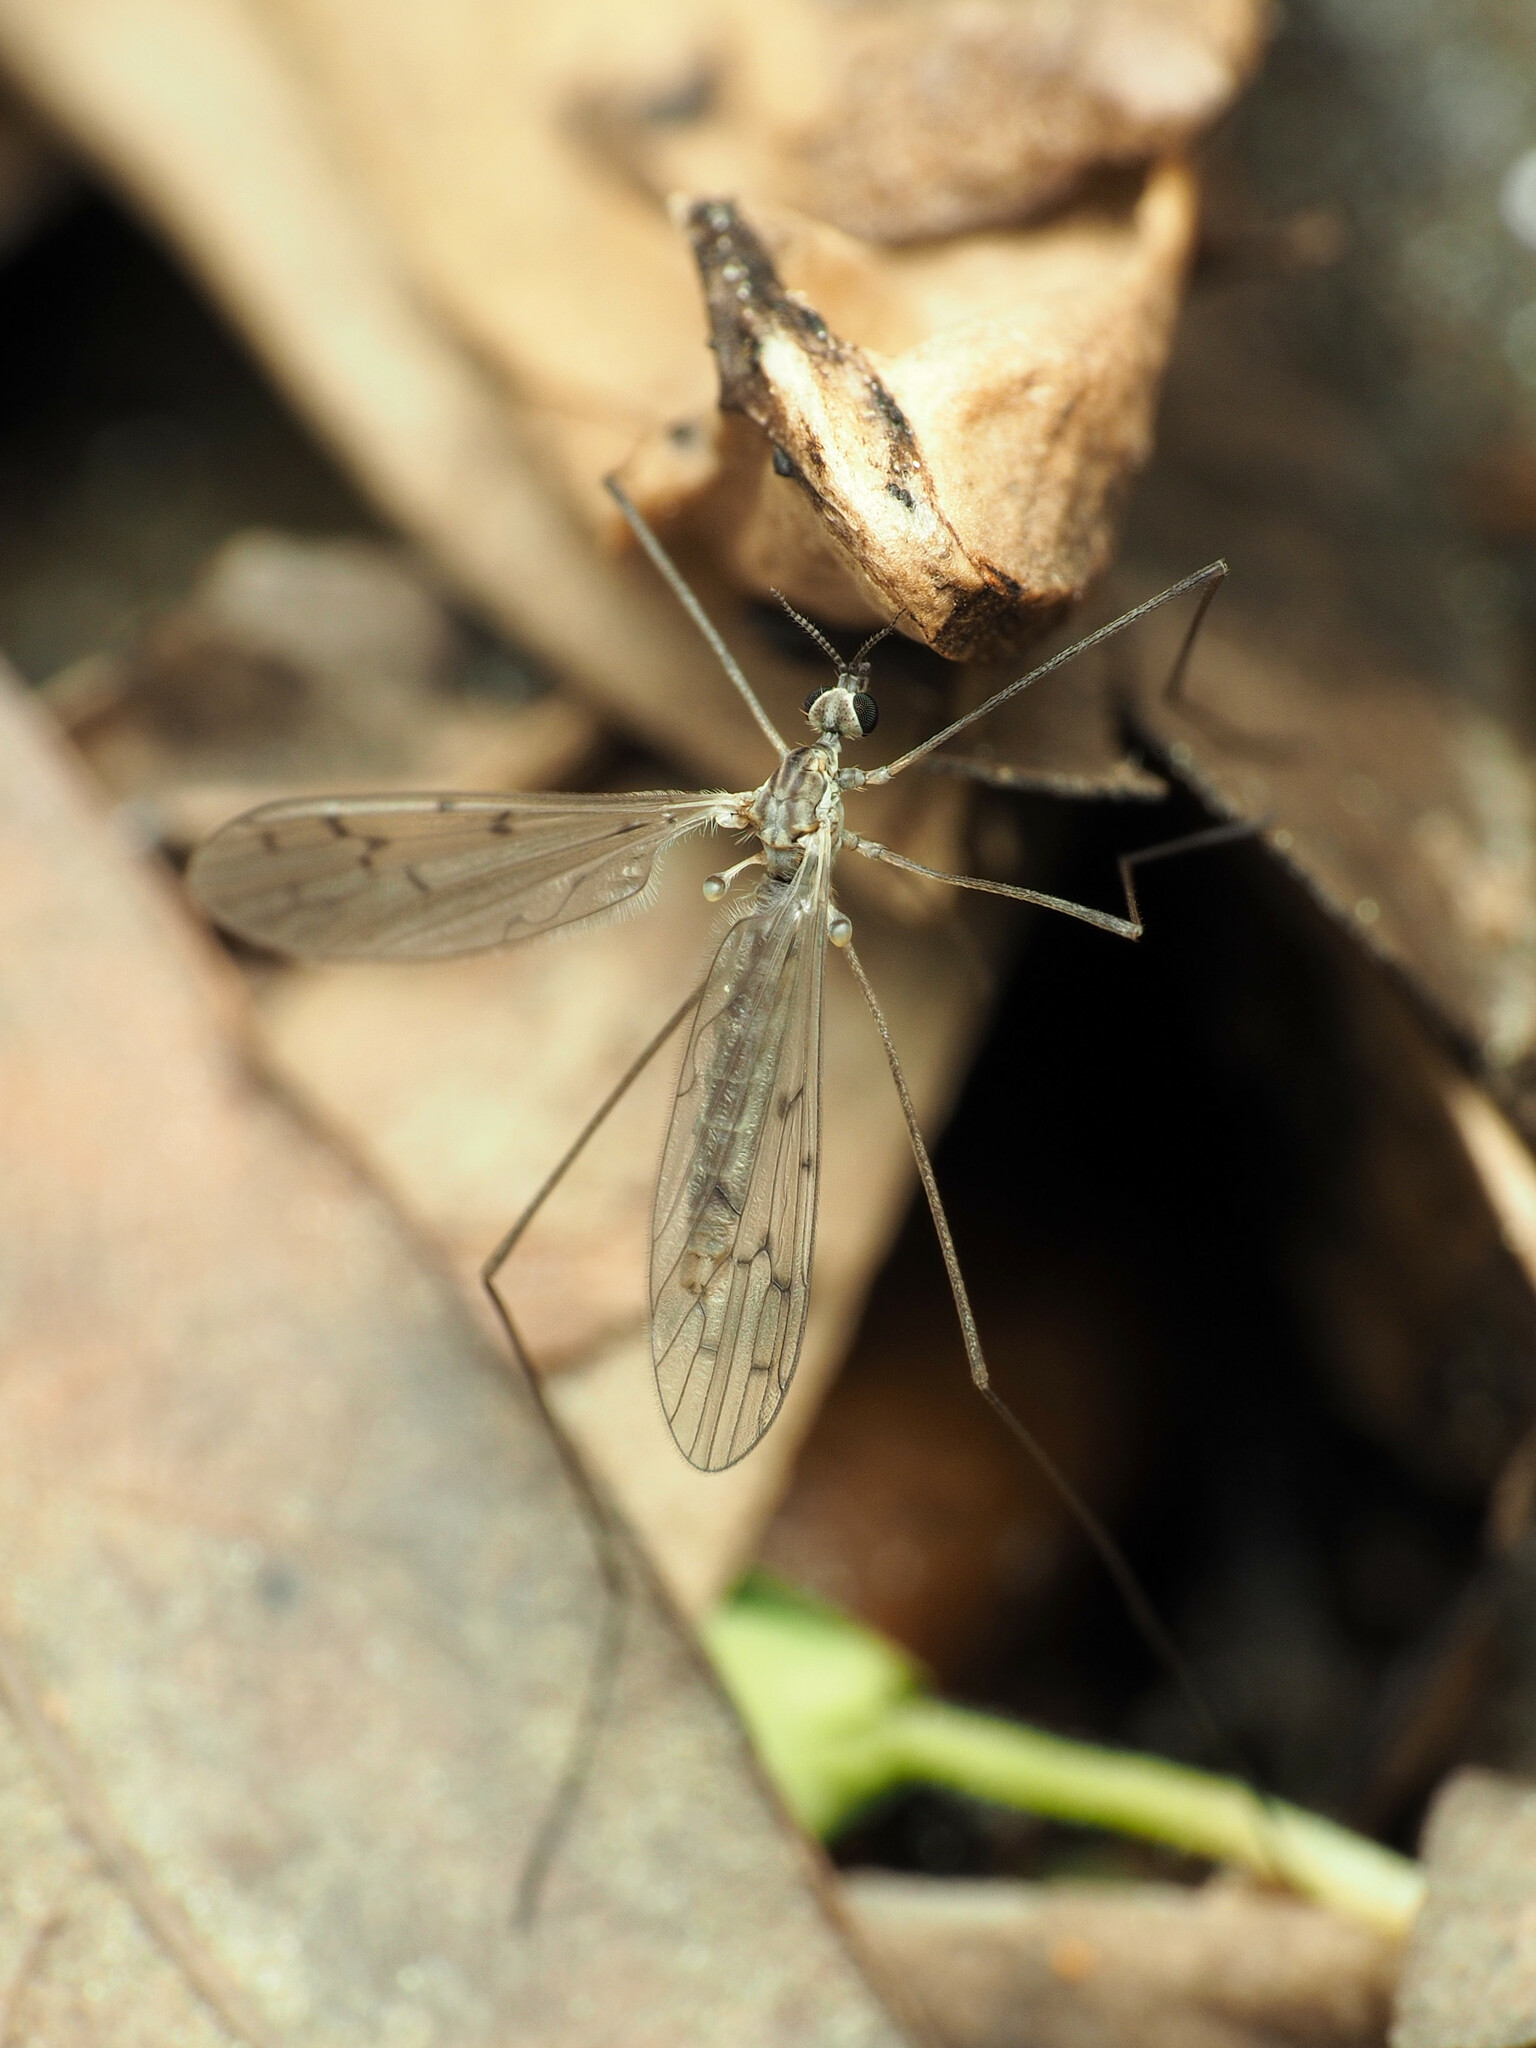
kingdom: Animalia
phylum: Arthropoda
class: Insecta
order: Diptera
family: Limoniidae
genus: Symplecta
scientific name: Symplecta cana
